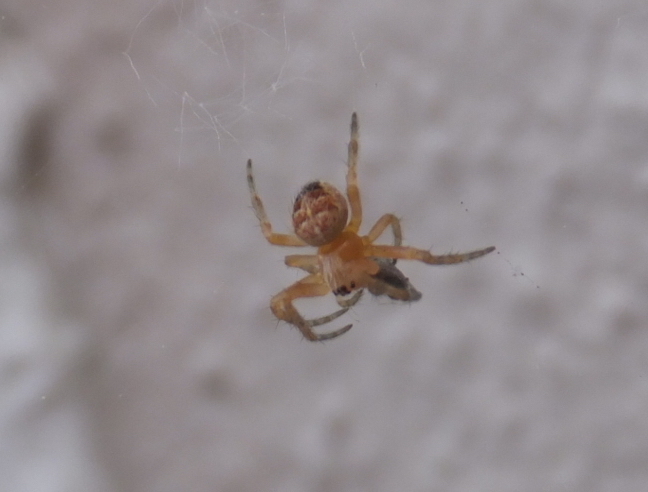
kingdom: Animalia
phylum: Arthropoda
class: Arachnida
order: Araneae
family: Araneidae
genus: Araneus
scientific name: Araneus diadematus
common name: Cross orbweaver
